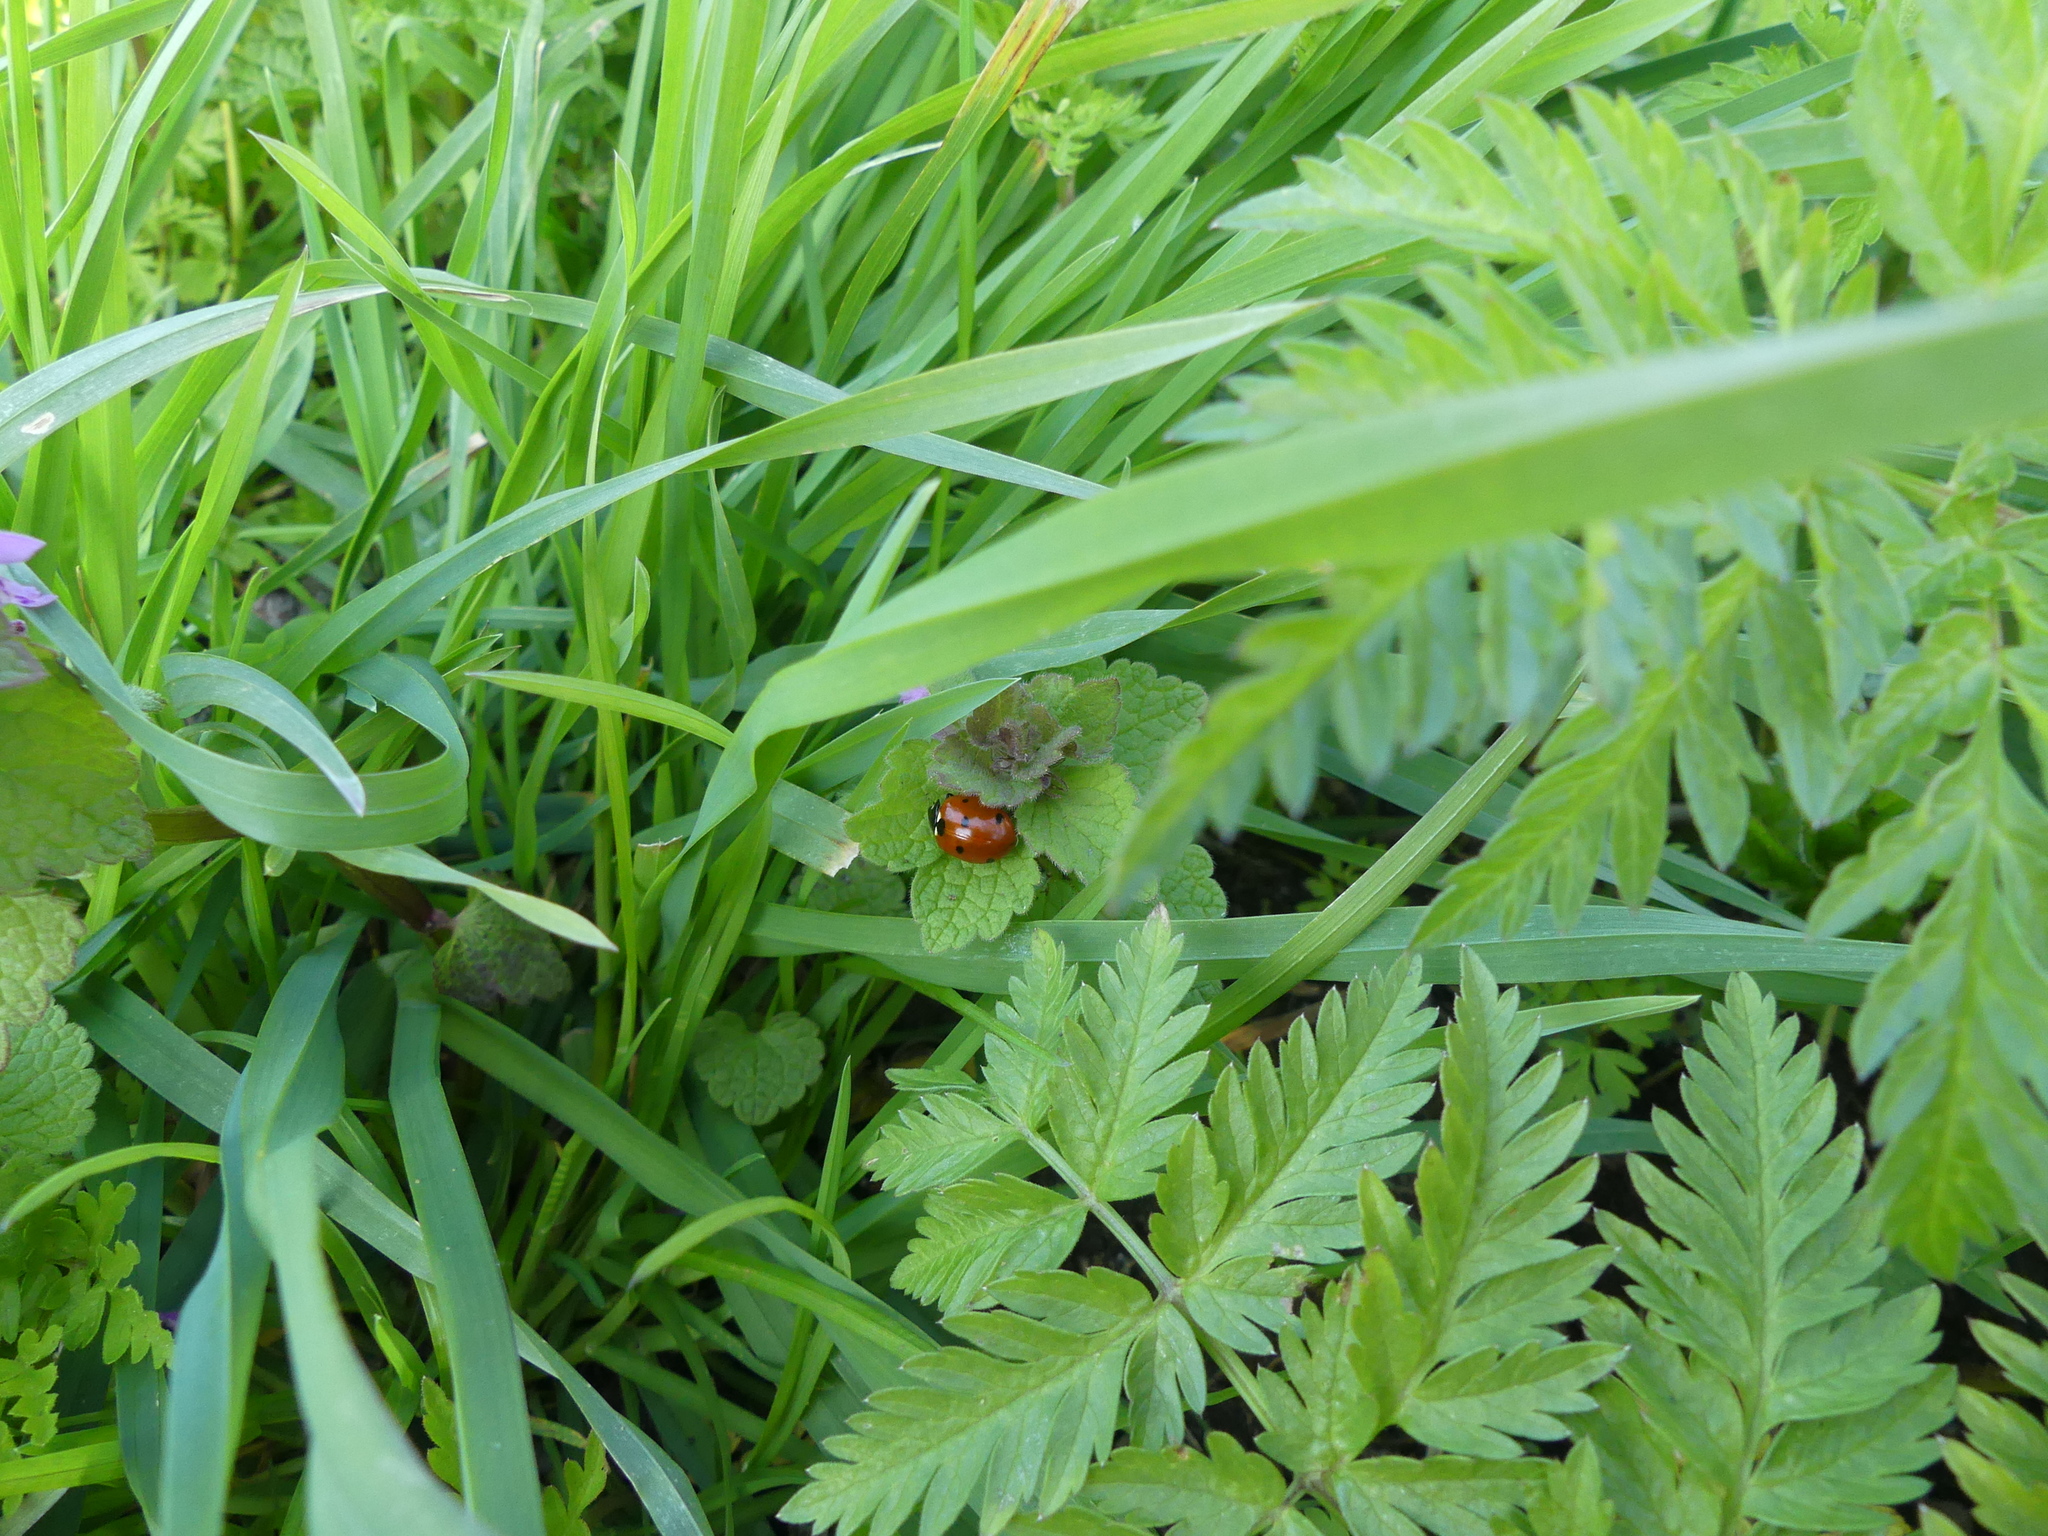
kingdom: Animalia
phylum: Arthropoda
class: Insecta
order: Coleoptera
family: Coccinellidae
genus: Coccinella
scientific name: Coccinella septempunctata
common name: Sevenspotted lady beetle
